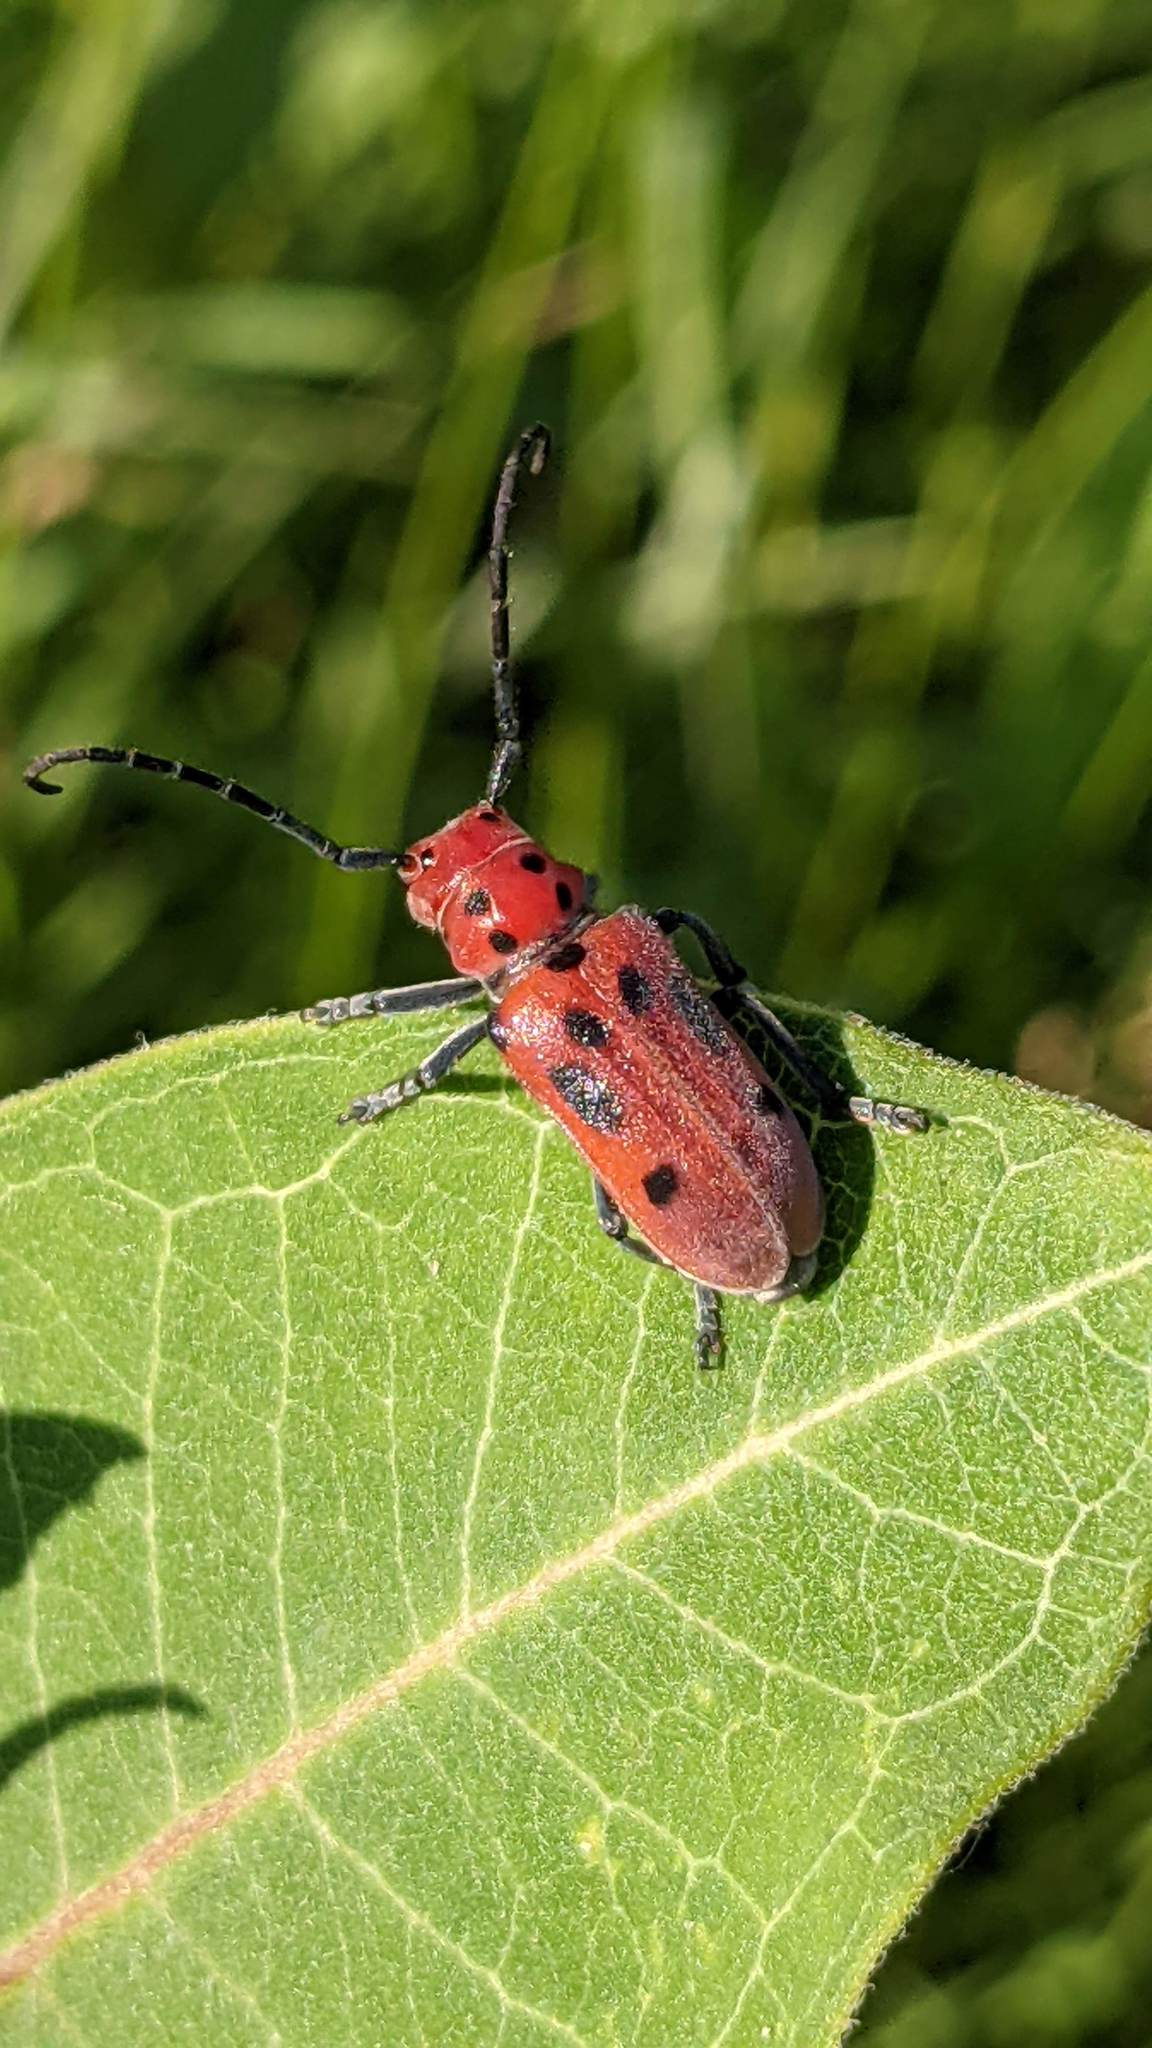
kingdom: Animalia
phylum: Arthropoda
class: Insecta
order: Coleoptera
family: Cerambycidae
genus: Tetraopes
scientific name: Tetraopes tetrophthalmus
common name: Red milkweed beetle
